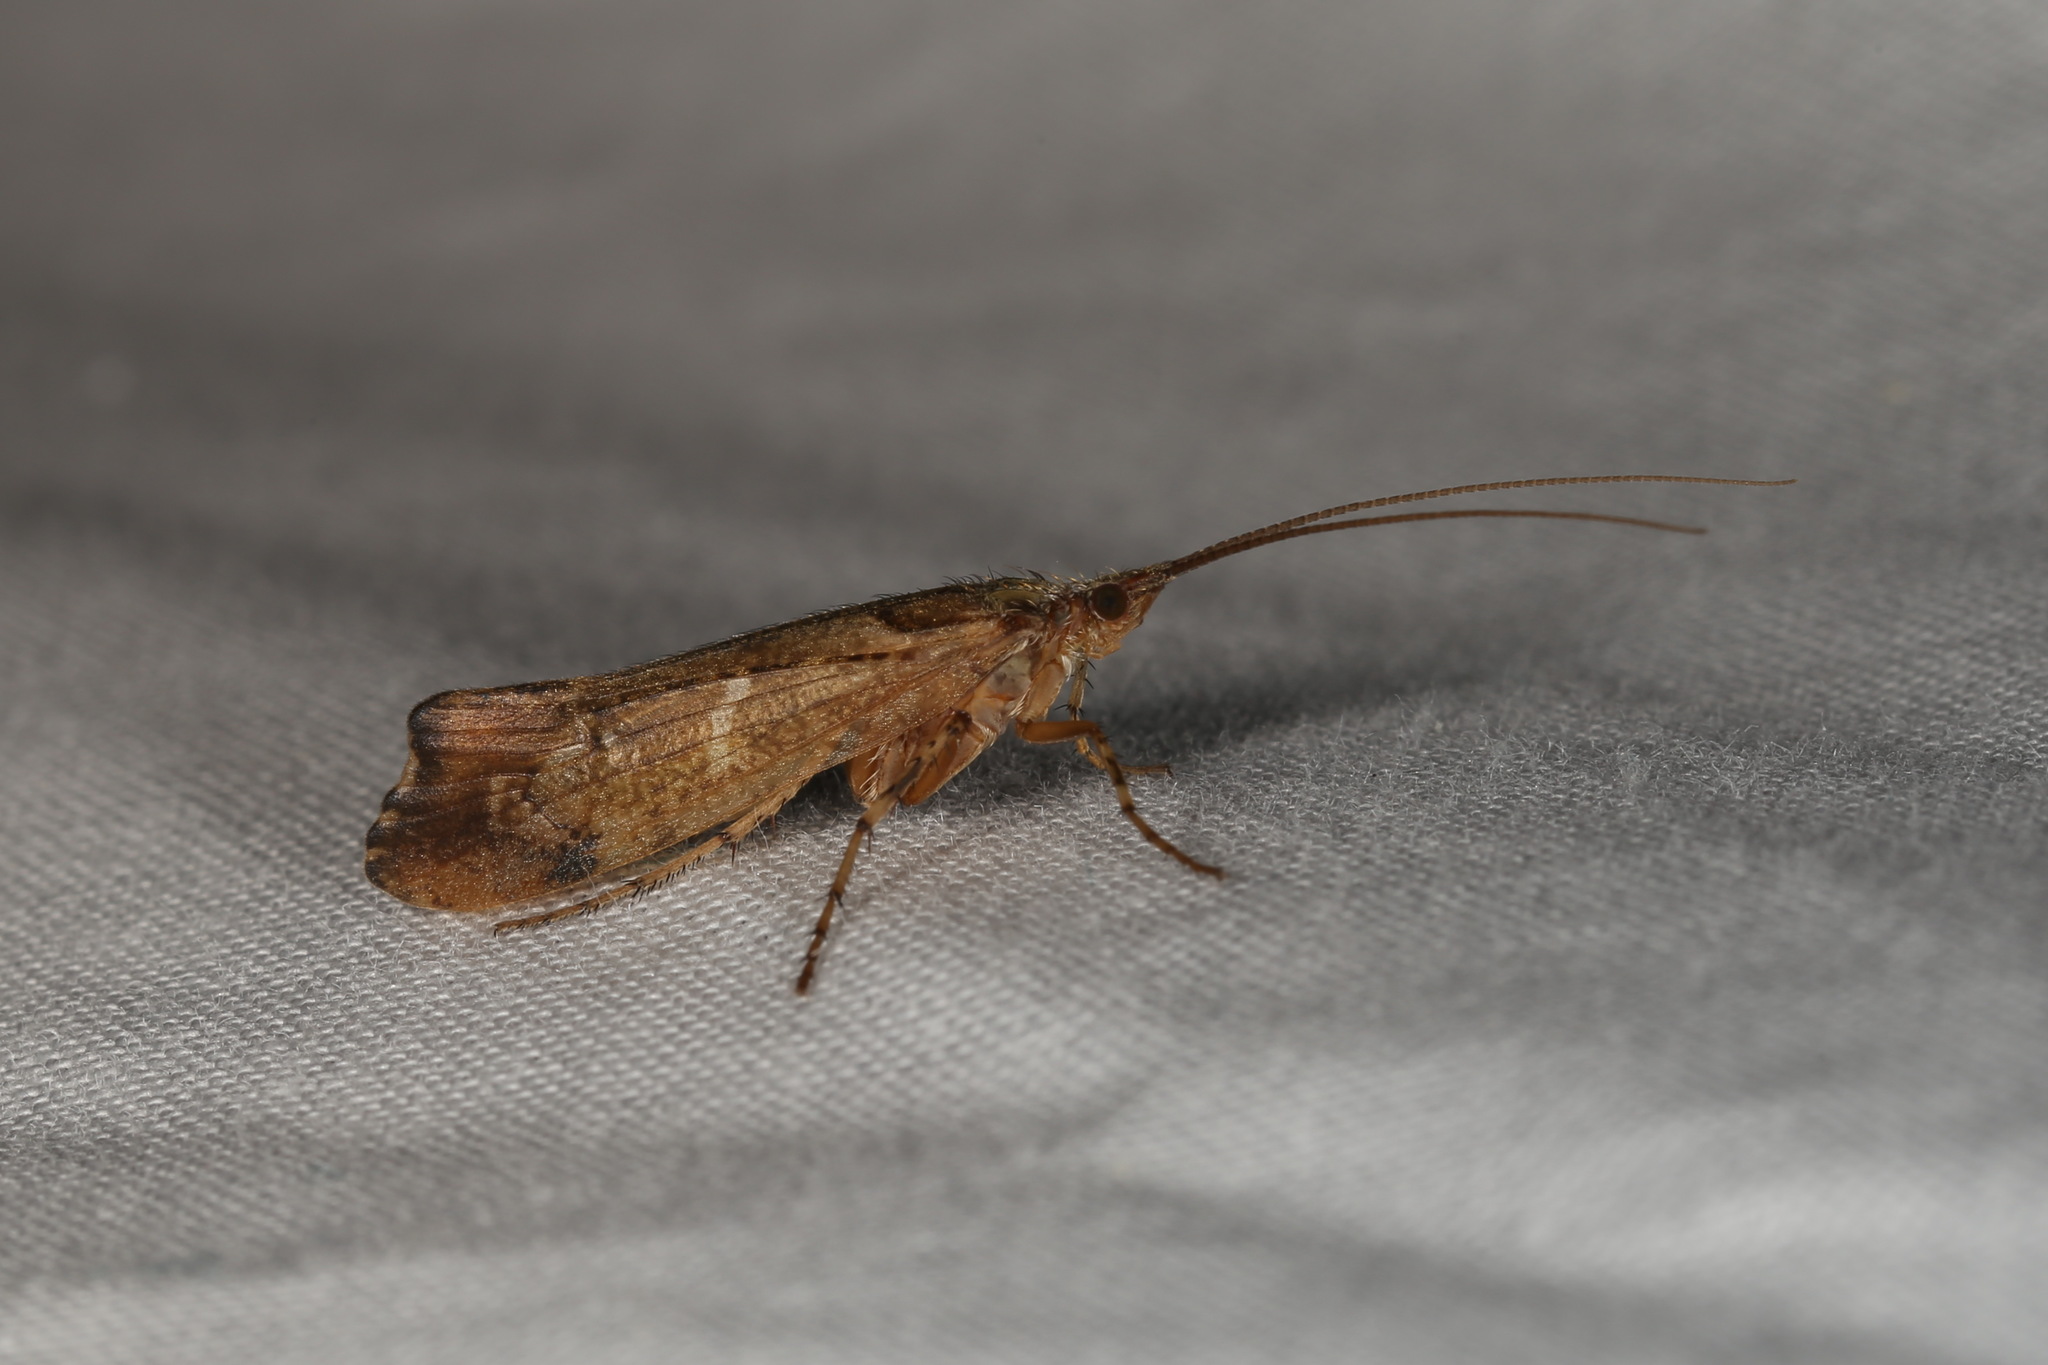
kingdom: Animalia
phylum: Arthropoda
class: Insecta
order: Trichoptera
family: Limnephilidae
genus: Glyphotaelius
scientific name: Glyphotaelius pellucidus
